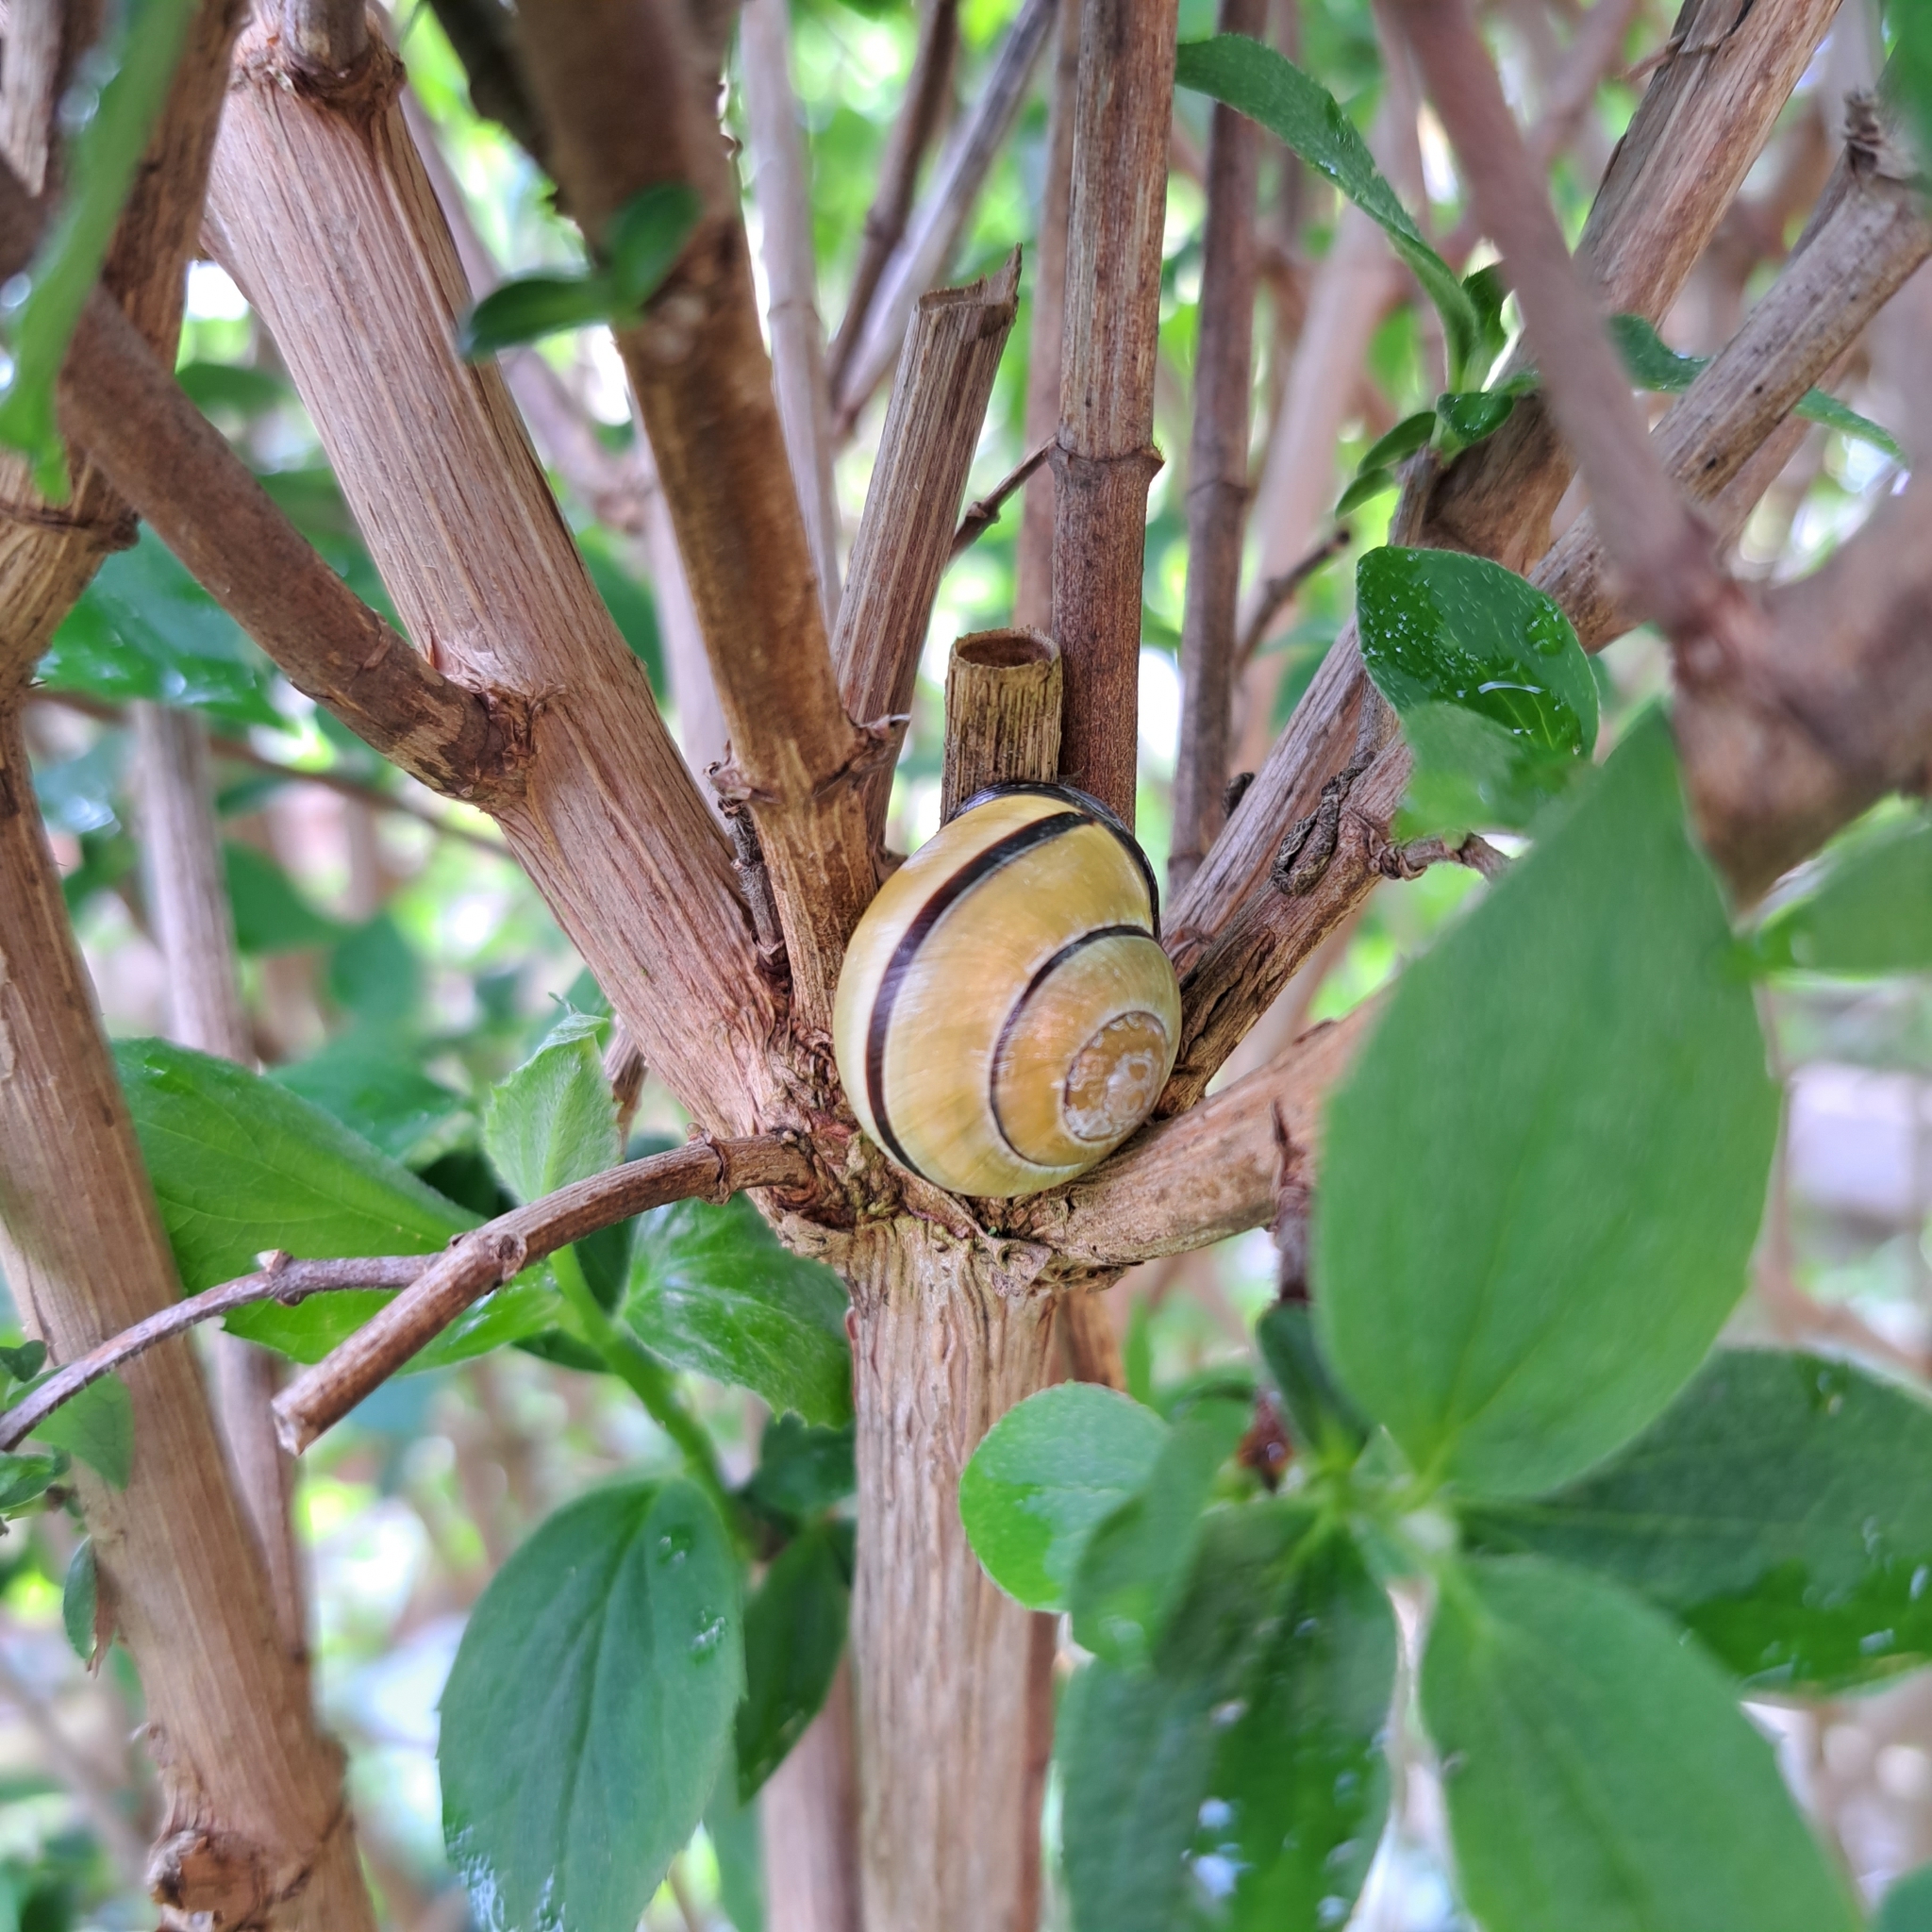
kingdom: Animalia
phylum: Mollusca
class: Gastropoda
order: Stylommatophora
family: Helicidae
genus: Cepaea
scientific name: Cepaea nemoralis
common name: Grovesnail
